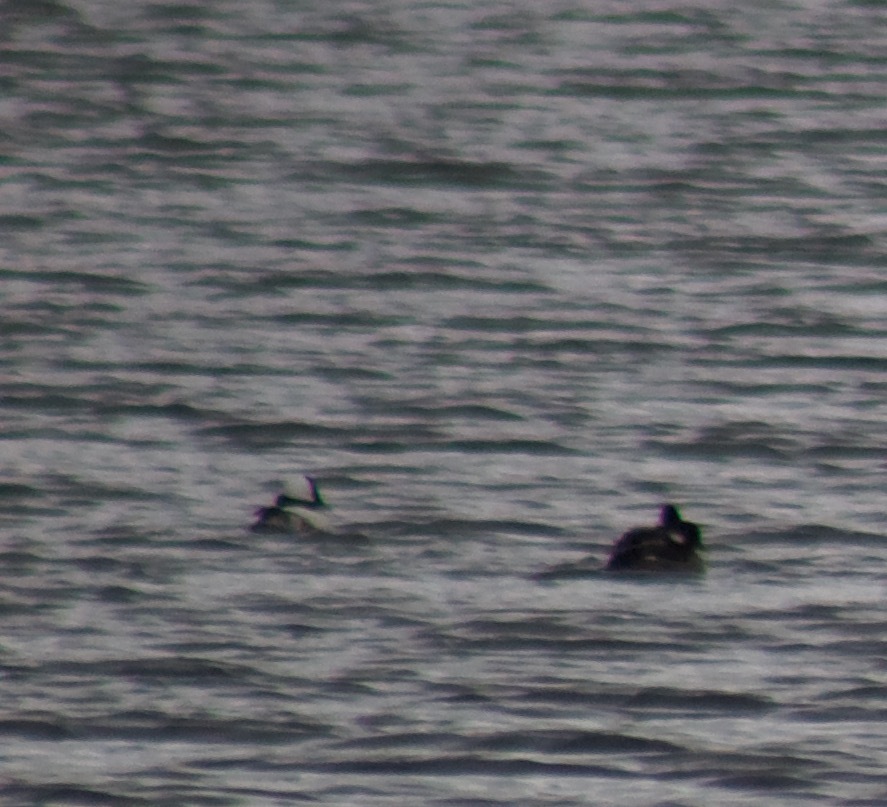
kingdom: Animalia
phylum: Chordata
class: Aves
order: Anseriformes
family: Anatidae
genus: Bucephala
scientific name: Bucephala albeola
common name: Bufflehead
